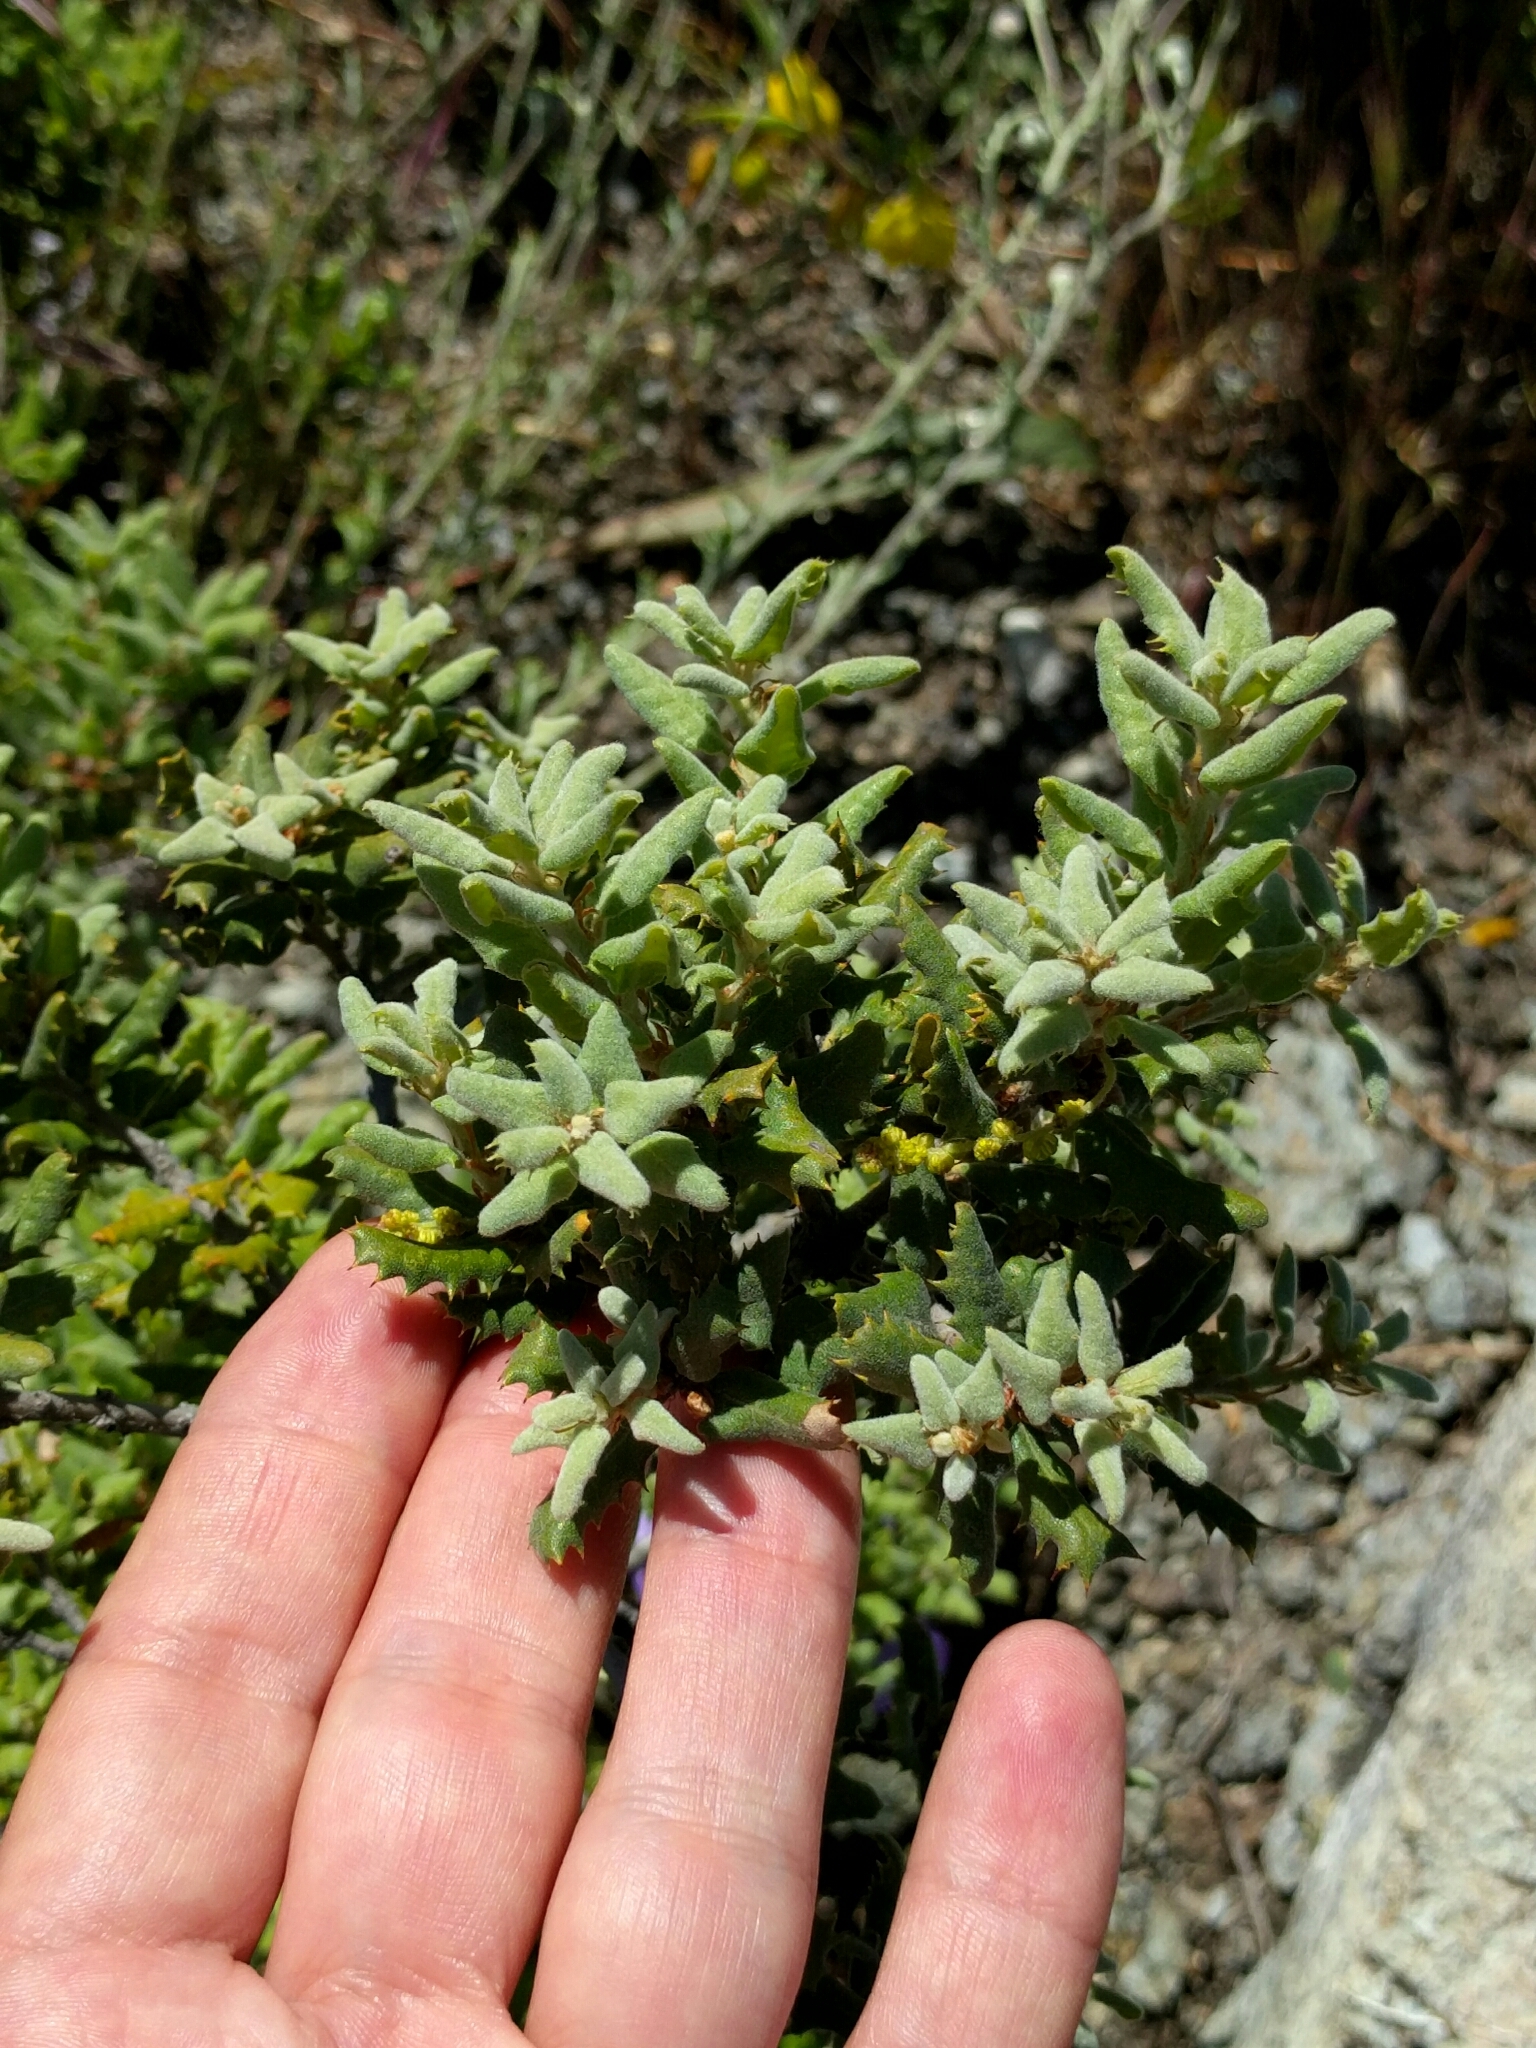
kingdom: Plantae
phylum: Tracheophyta
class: Magnoliopsida
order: Fagales
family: Fagaceae
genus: Quercus
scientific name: Quercus durata
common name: Leather oak
